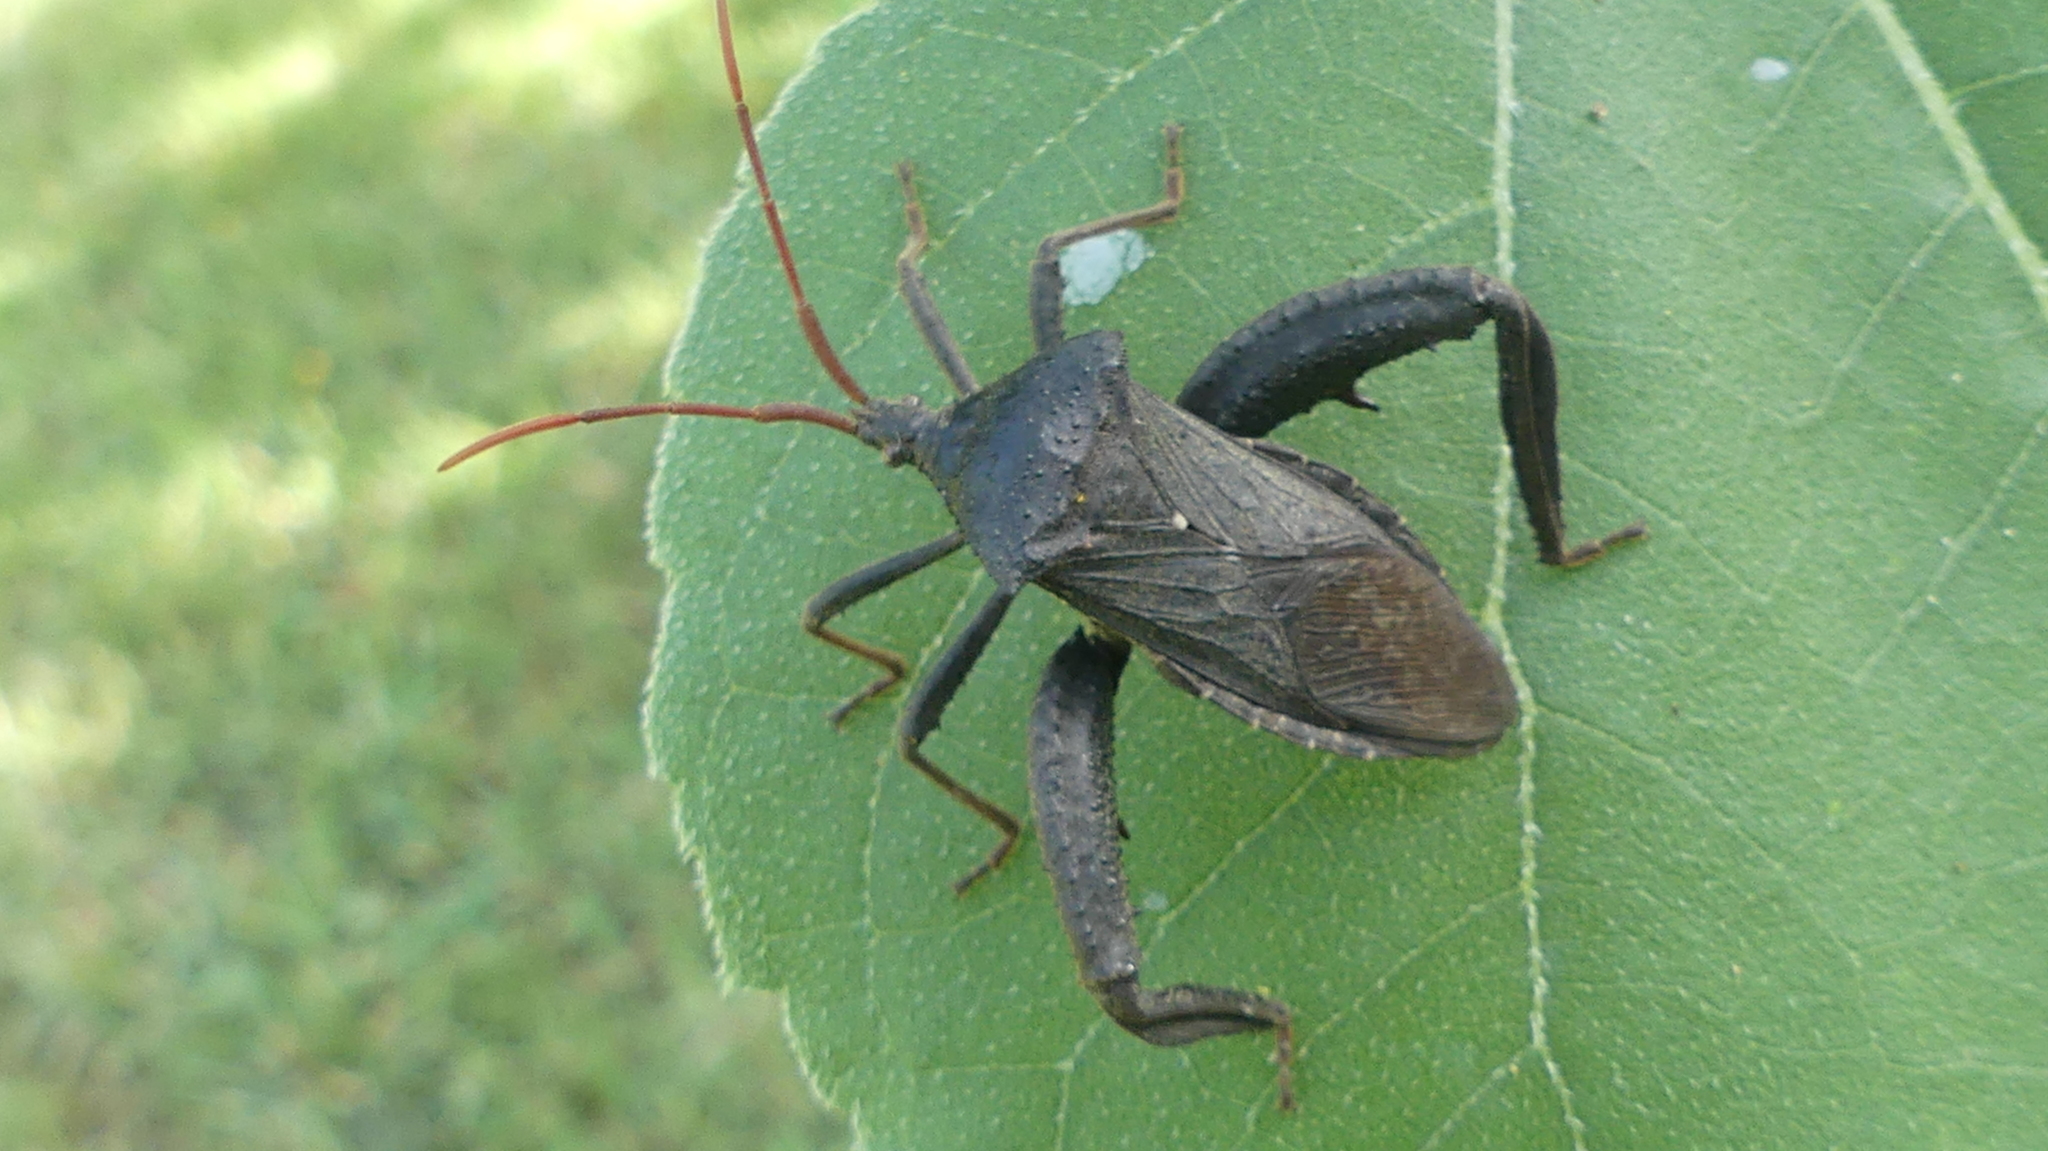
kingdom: Animalia
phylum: Arthropoda
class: Insecta
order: Hemiptera
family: Coreidae
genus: Acanthocephala
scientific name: Acanthocephala femorata
